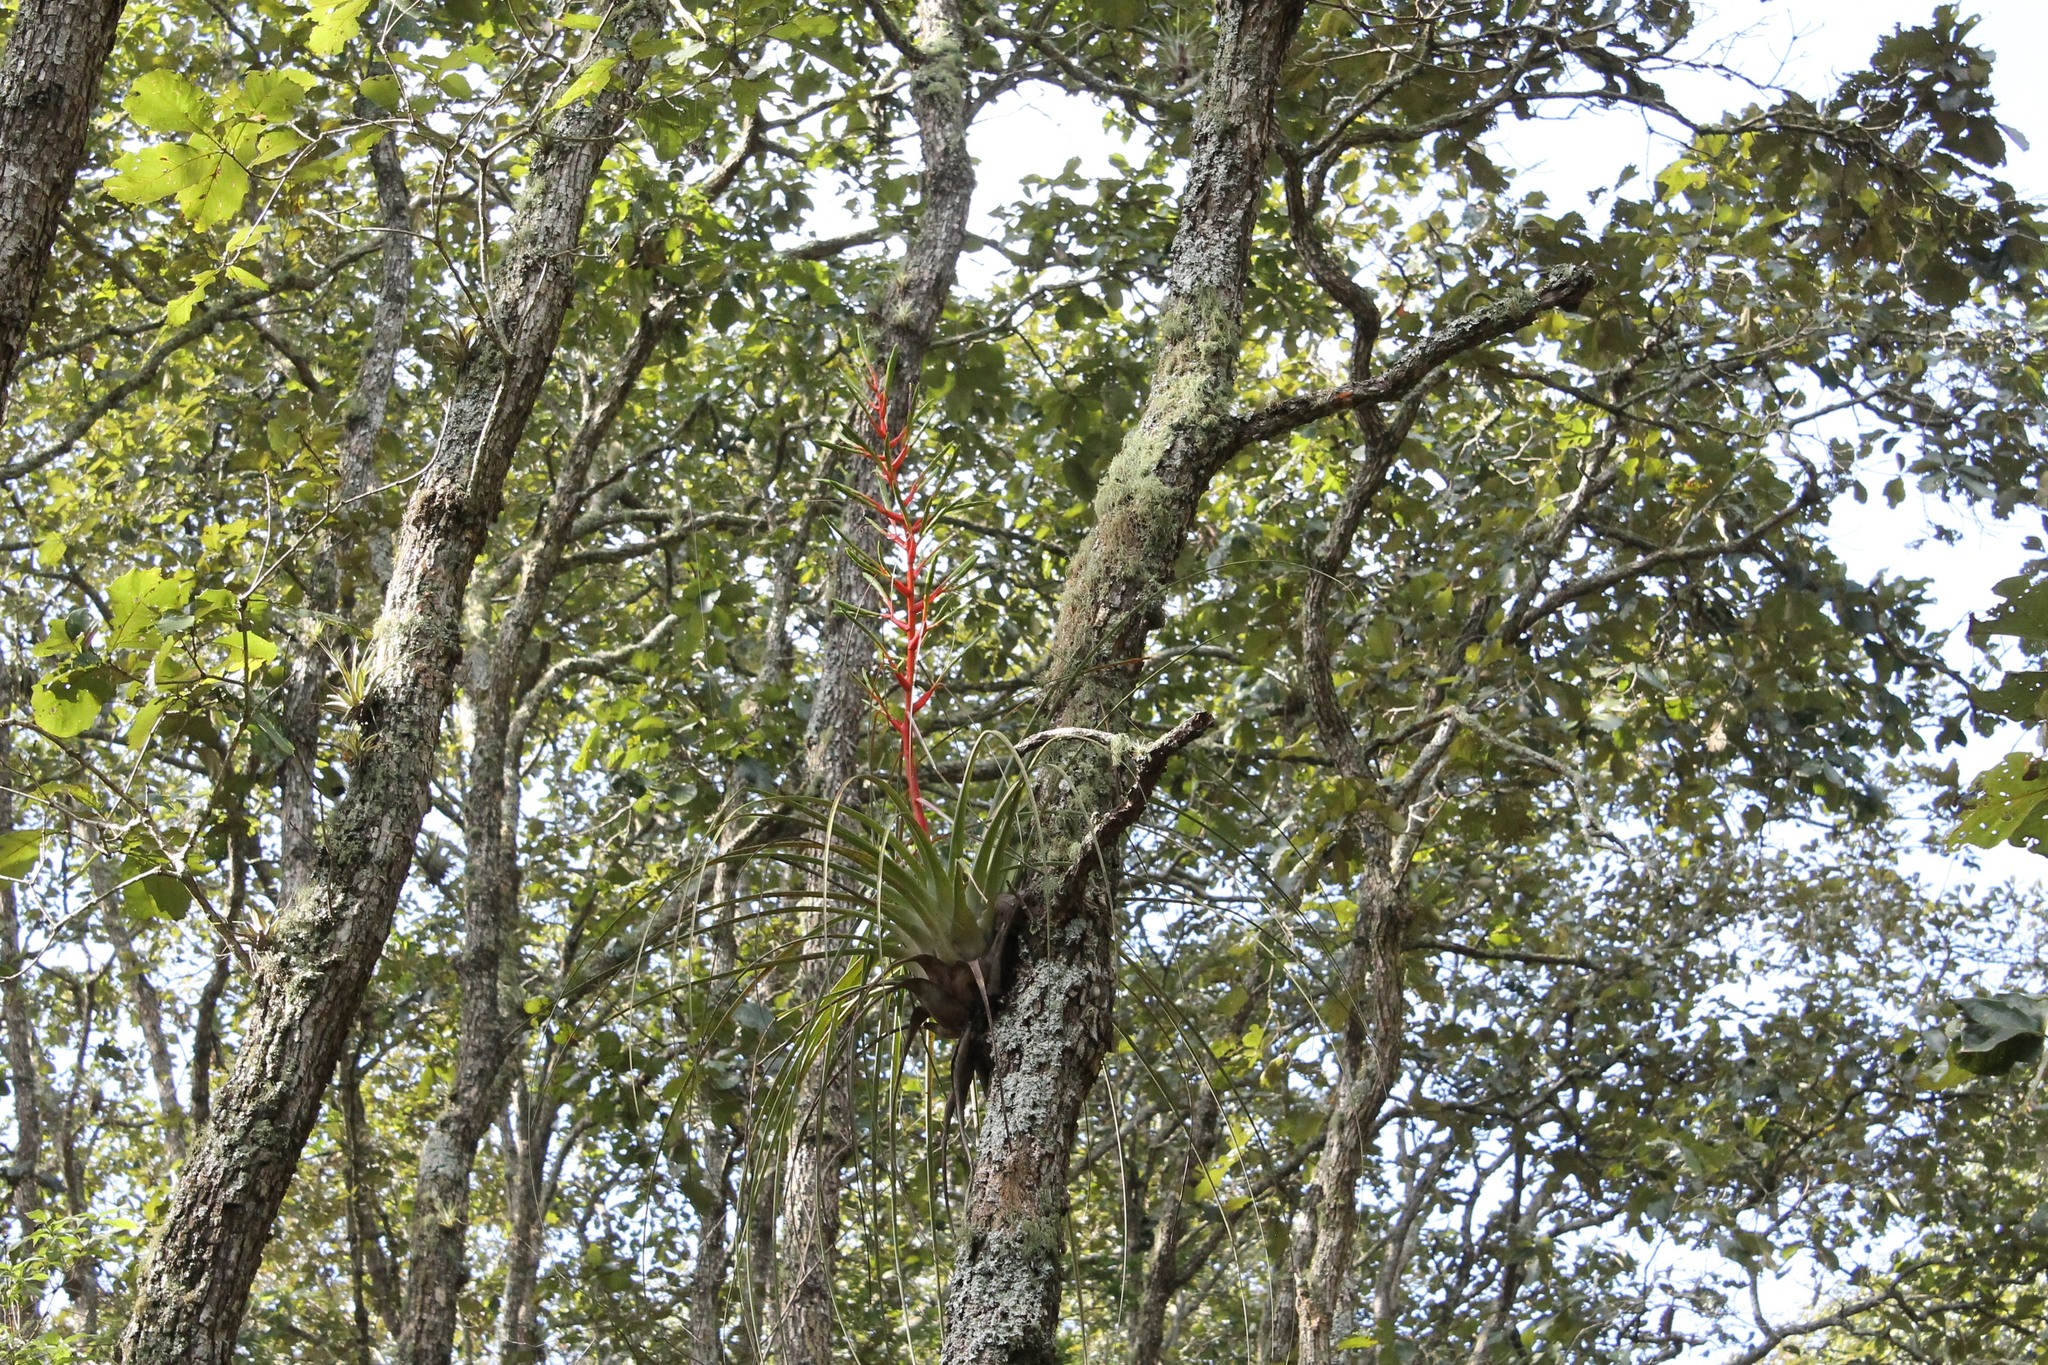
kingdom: Plantae
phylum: Tracheophyta
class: Liliopsida
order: Poales
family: Bromeliaceae
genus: Tillandsia
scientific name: Tillandsia calothyrsus
